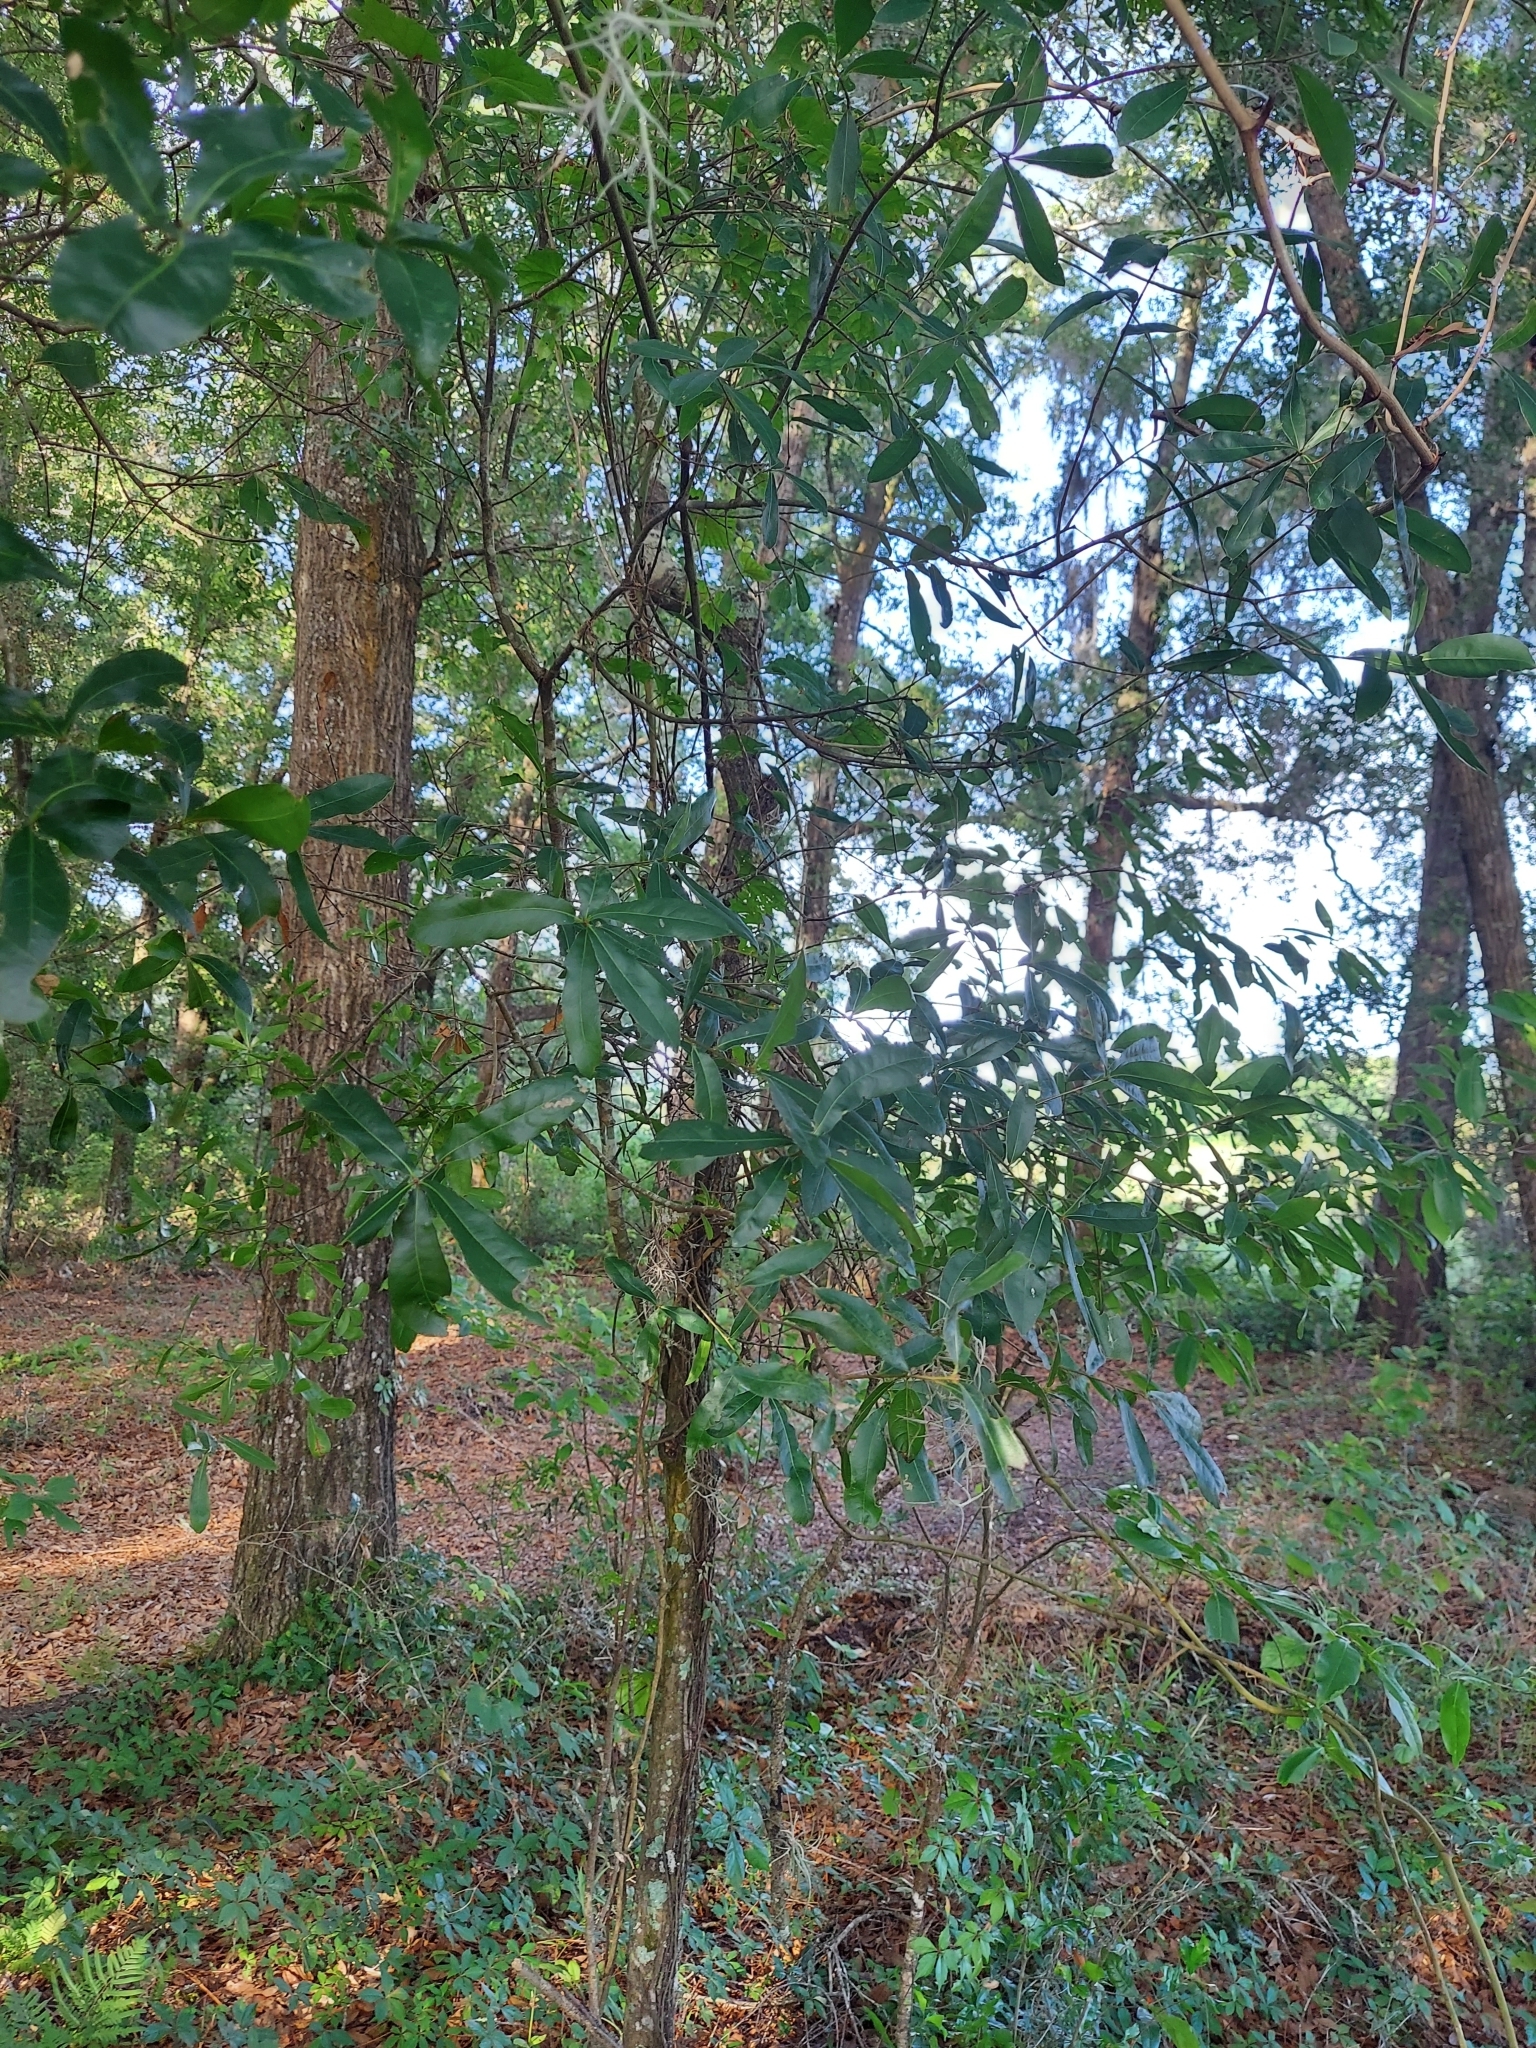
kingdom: Plantae
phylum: Tracheophyta
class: Magnoliopsida
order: Fagales
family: Fagaceae
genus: Quercus
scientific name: Quercus laurifolia
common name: Swamp laurel oak
